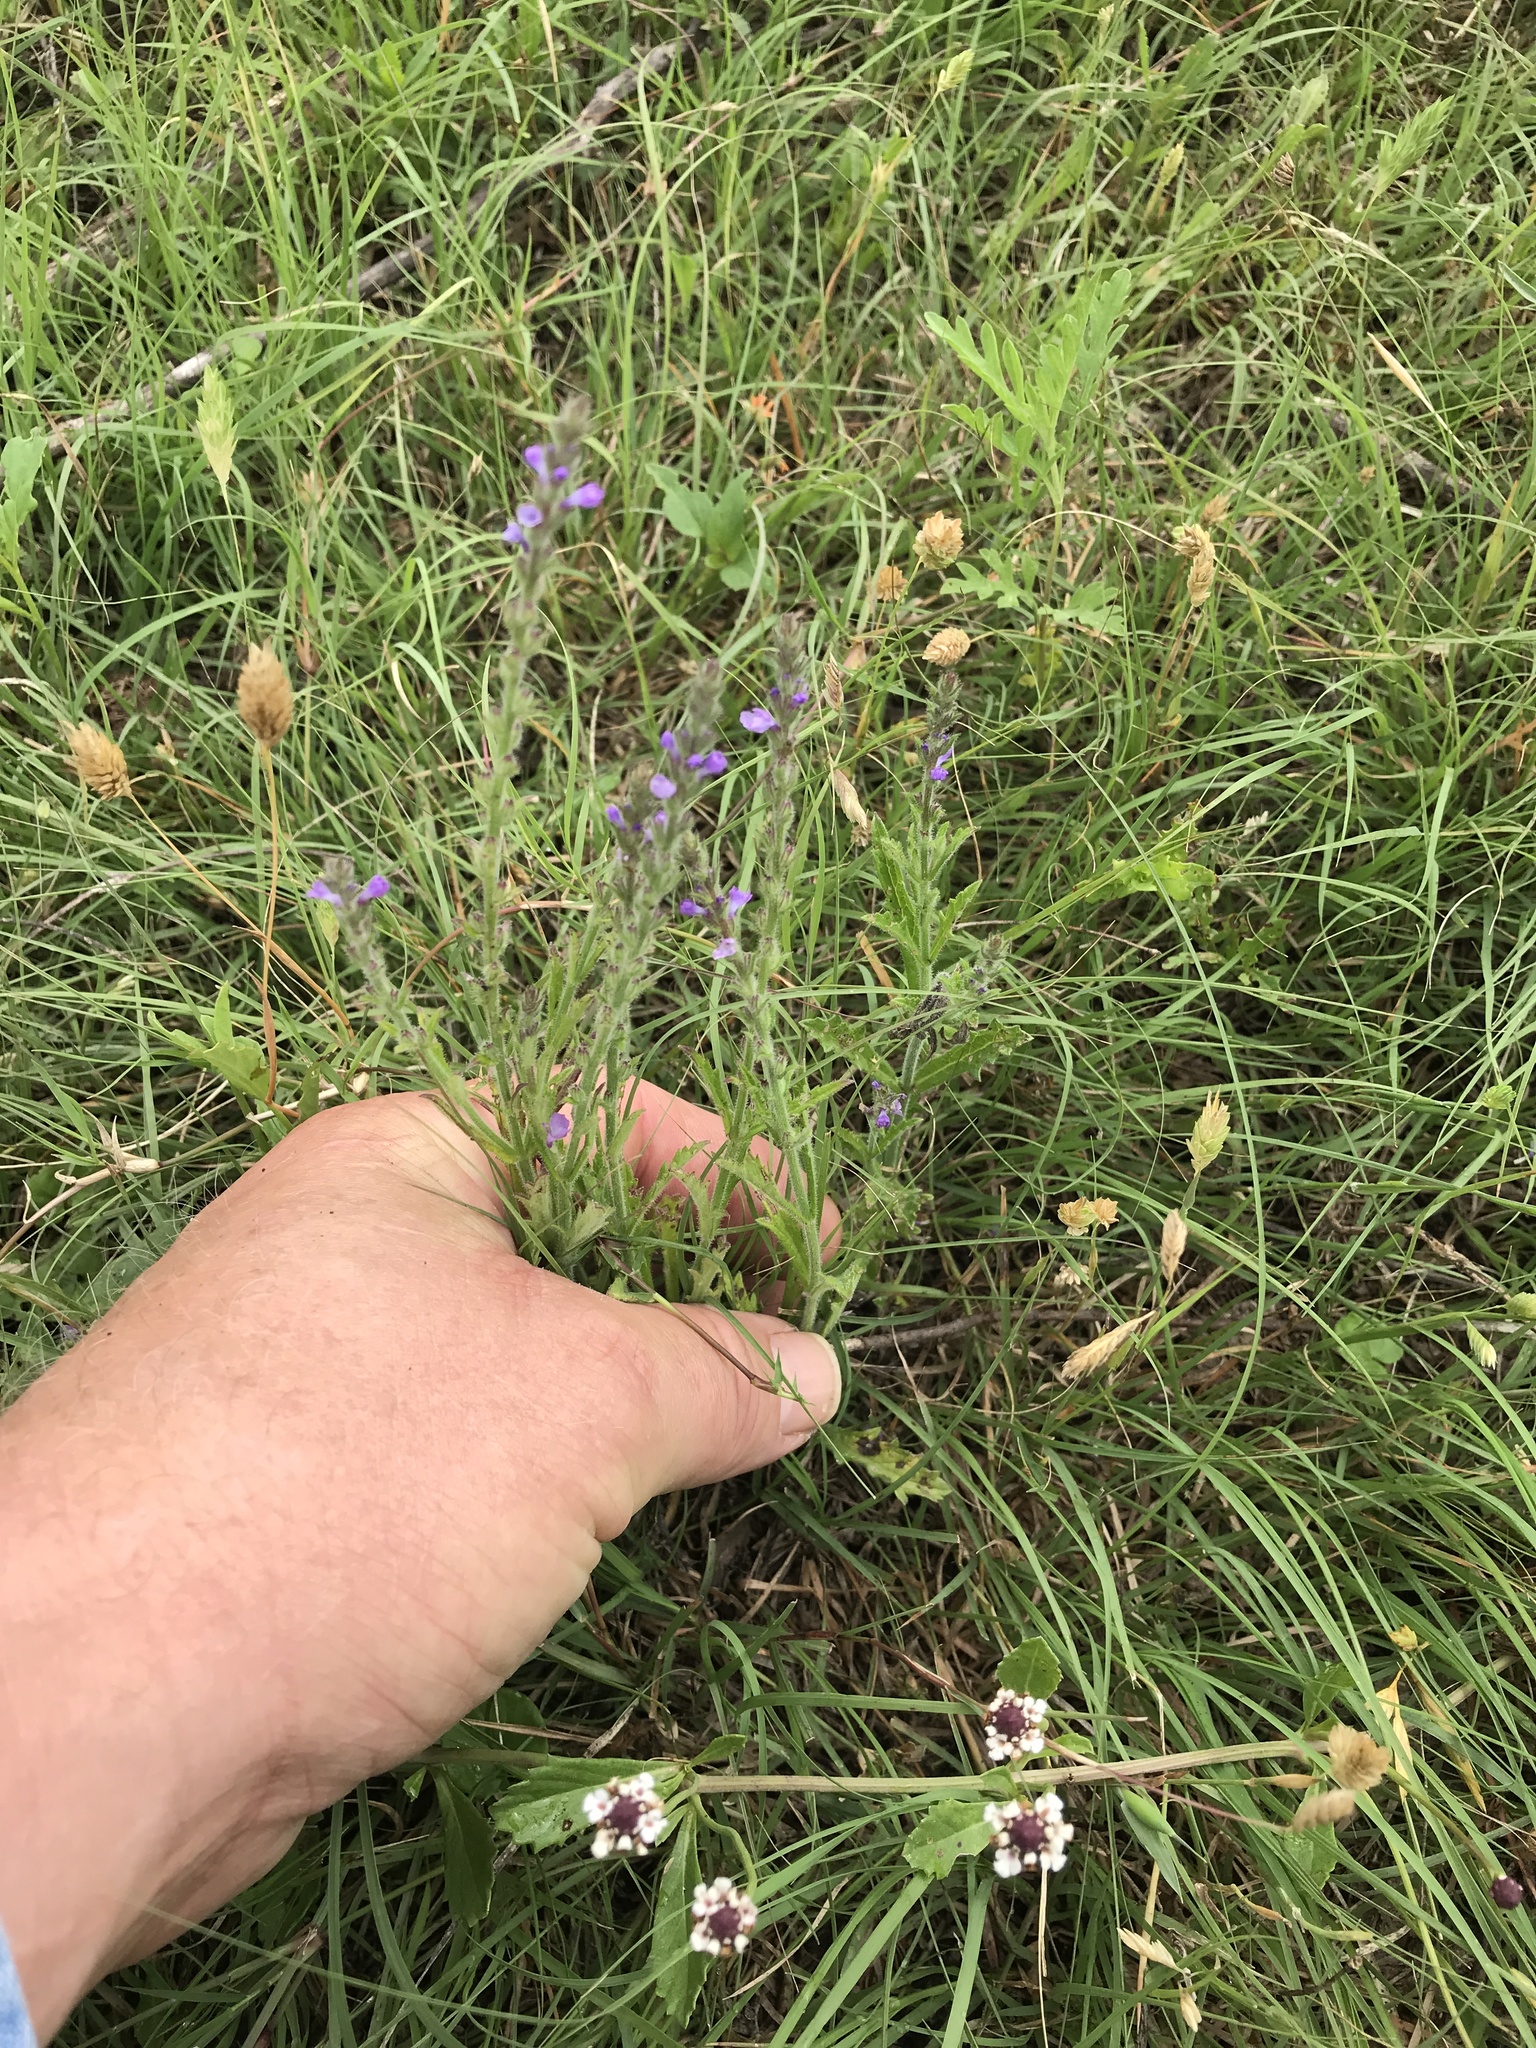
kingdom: Plantae
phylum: Tracheophyta
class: Magnoliopsida
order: Lamiales
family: Verbenaceae
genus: Verbena
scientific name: Verbena canescens
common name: Gray vervain
